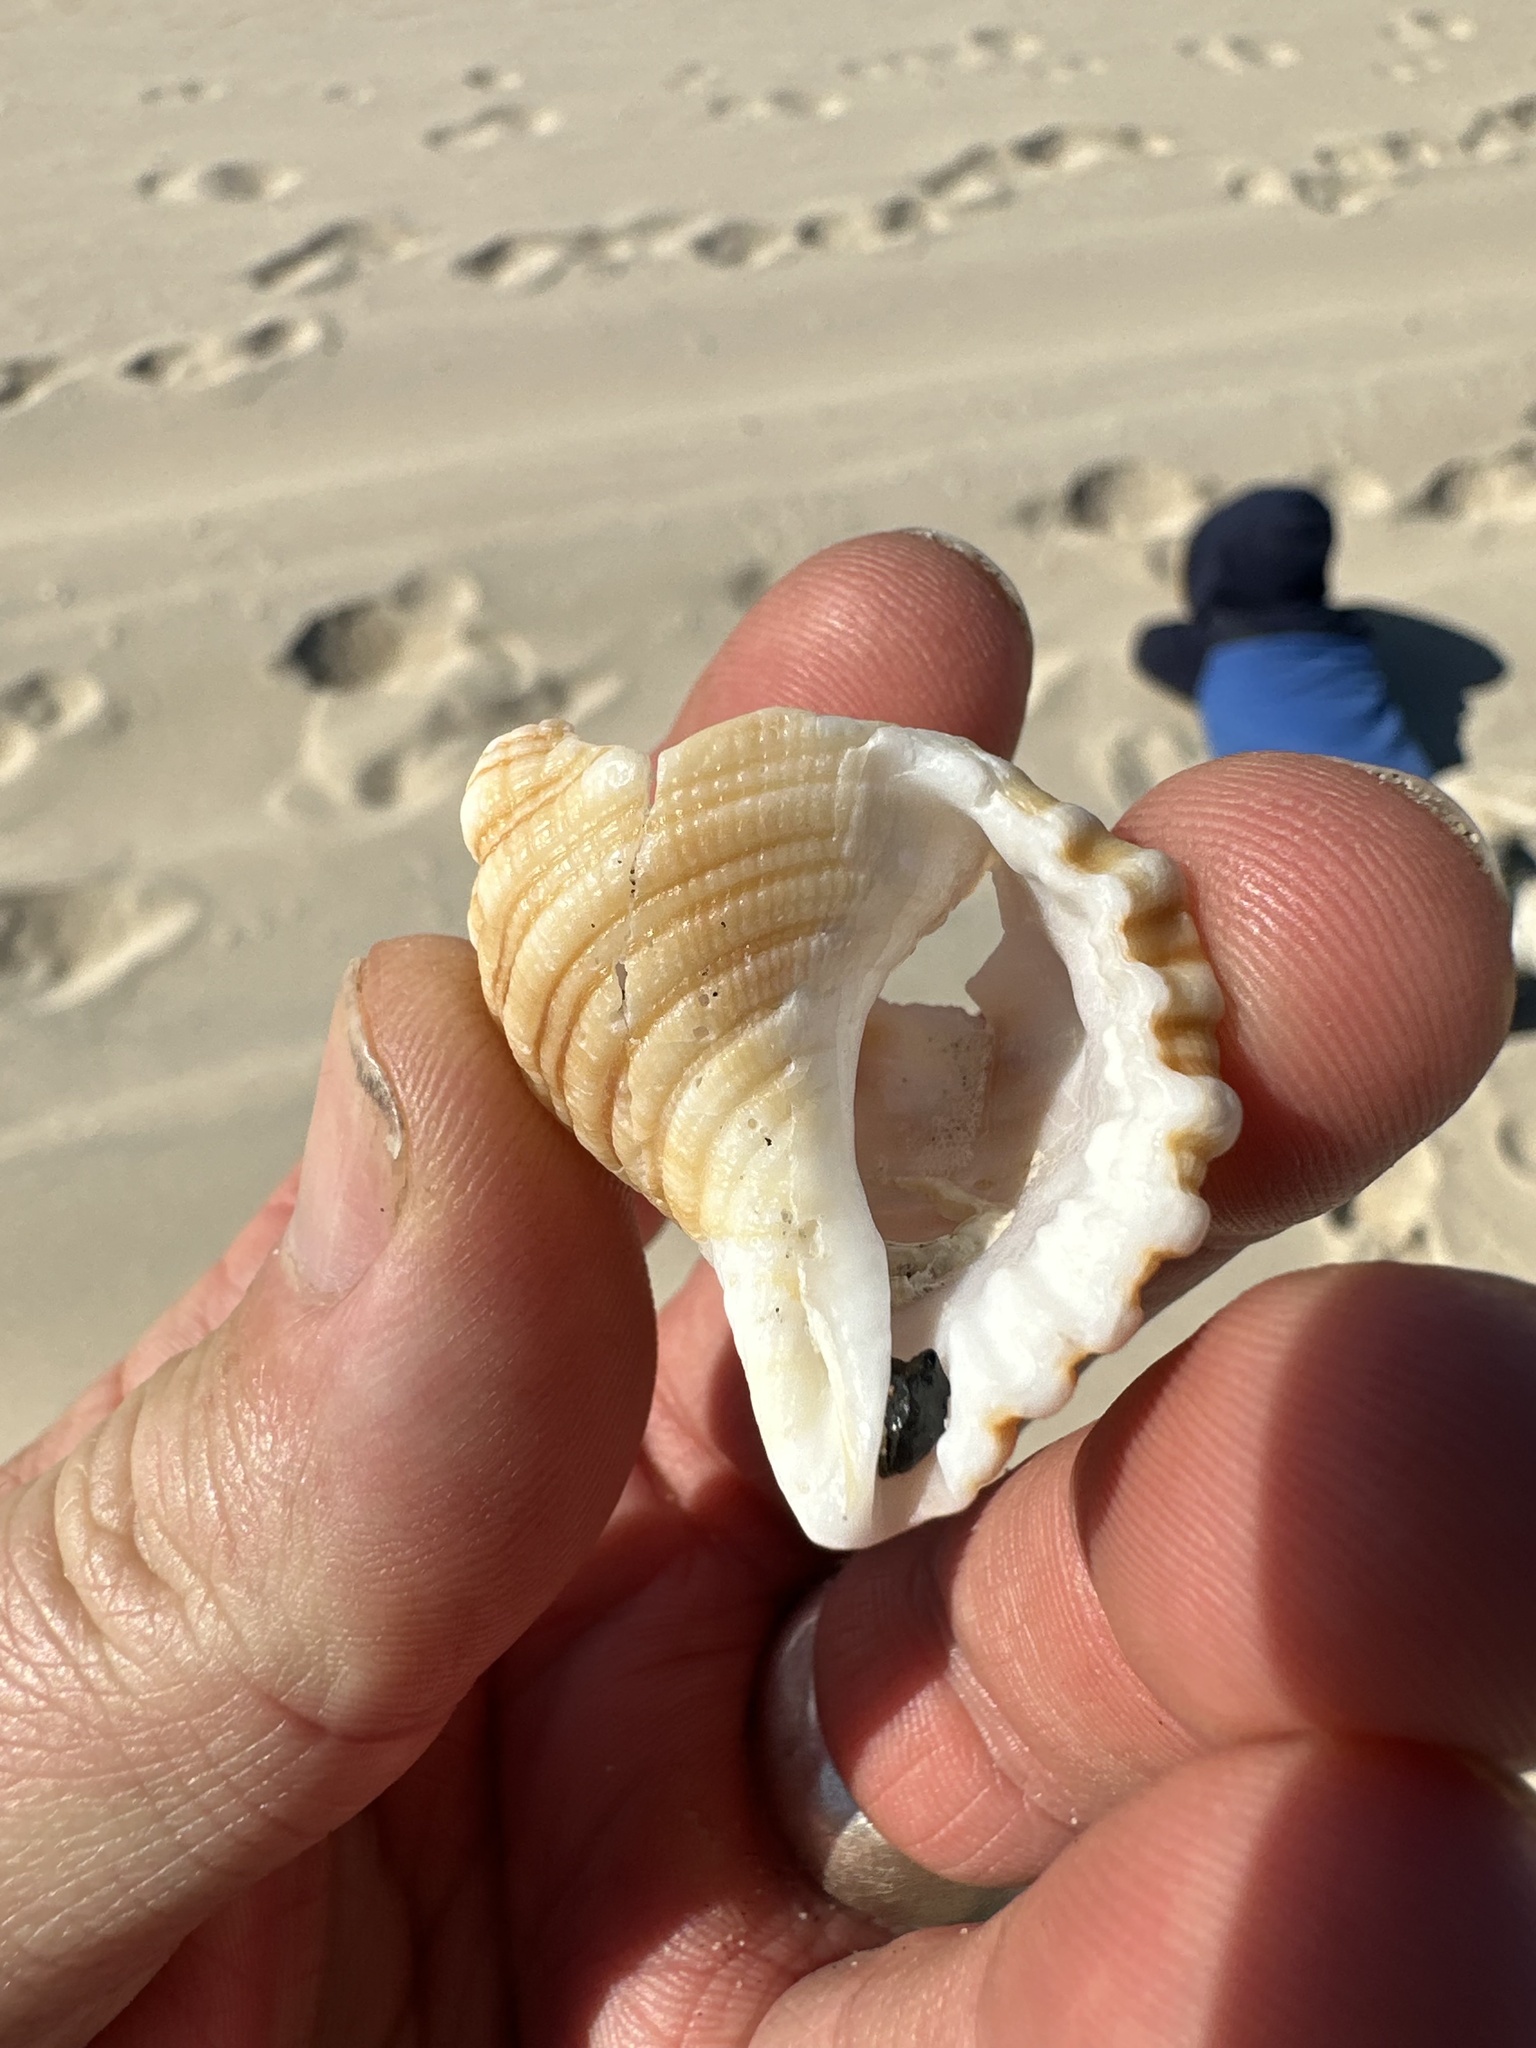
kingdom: Animalia
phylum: Mollusca
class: Gastropoda
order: Littorinimorpha
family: Cymatiidae
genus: Cabestana
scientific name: Cabestana spengleri
